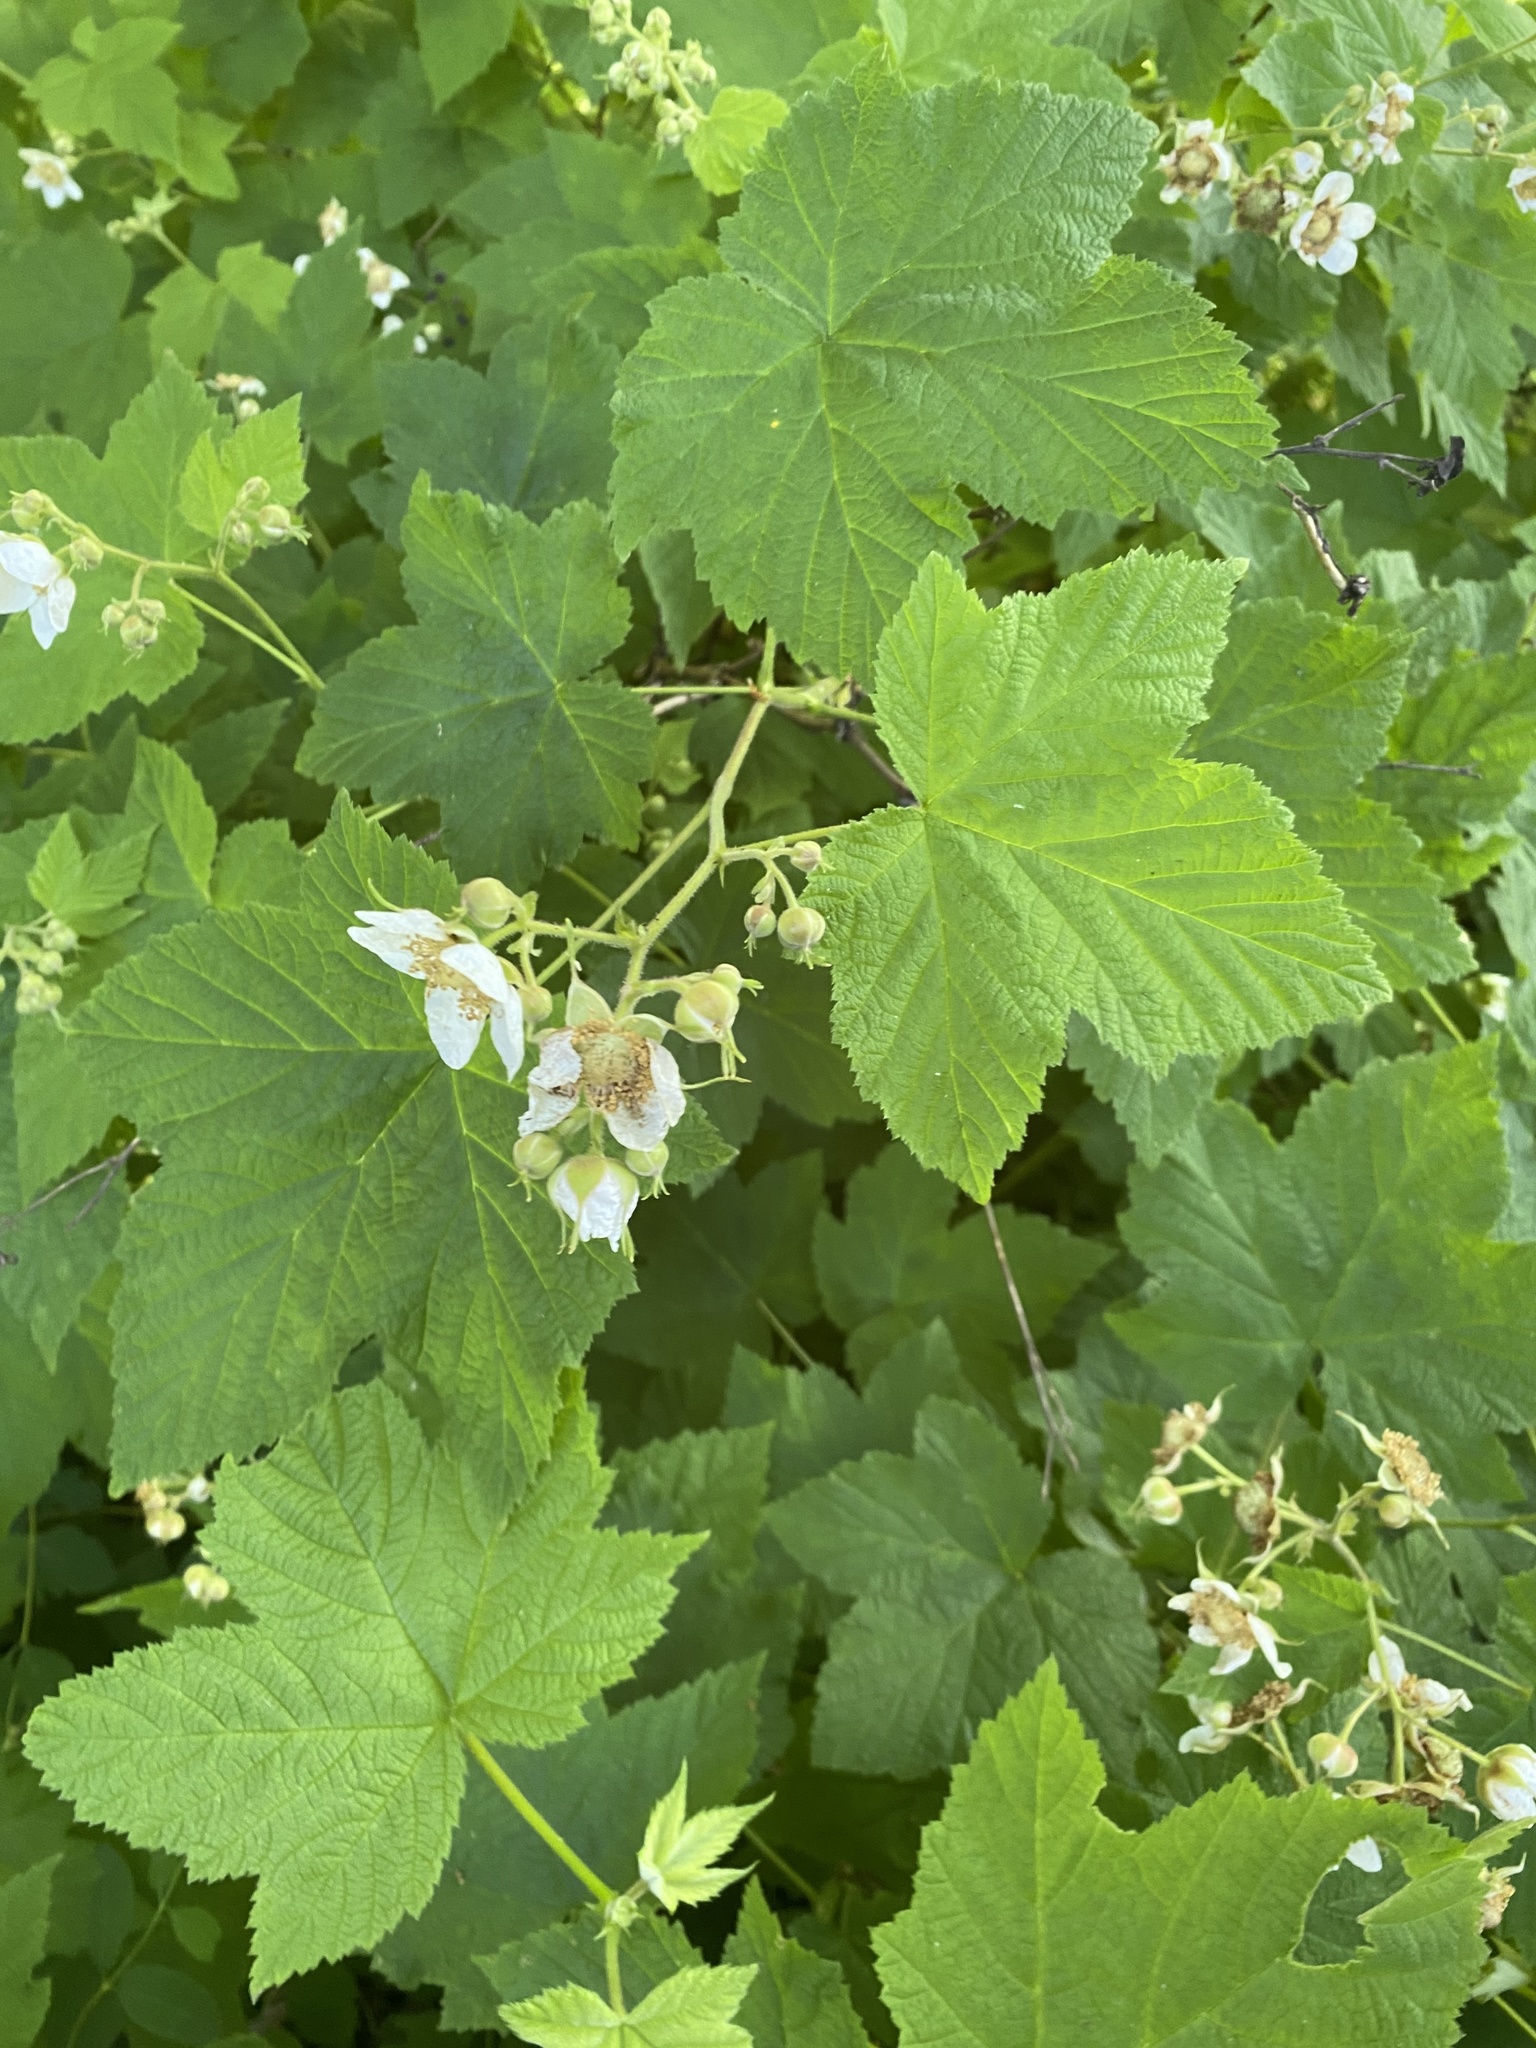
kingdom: Plantae
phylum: Tracheophyta
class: Magnoliopsida
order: Rosales
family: Rosaceae
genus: Rubus
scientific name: Rubus parviflorus
